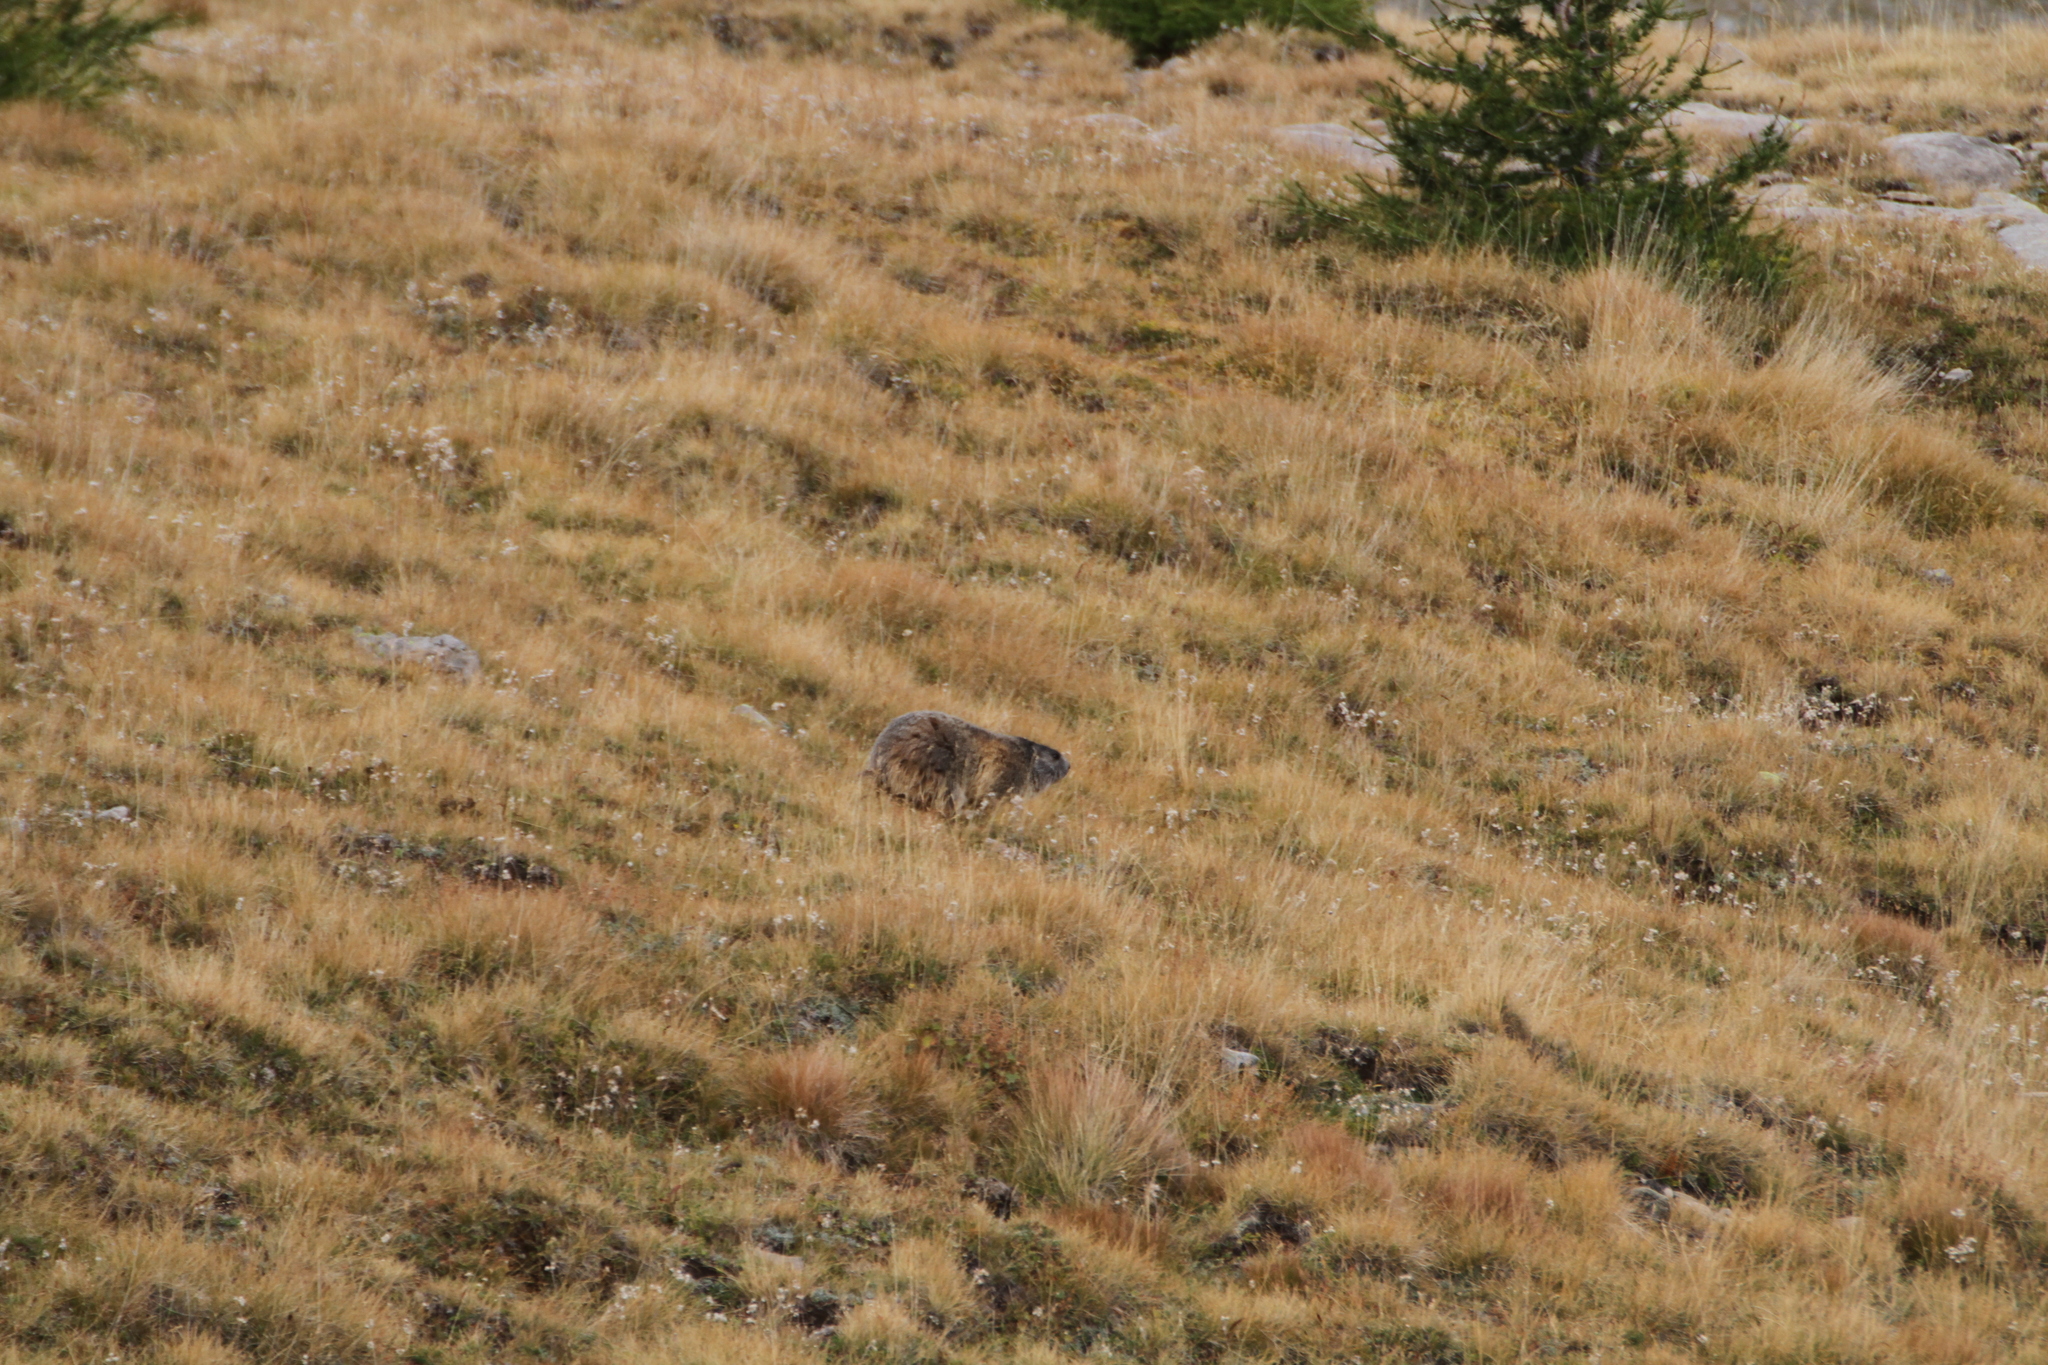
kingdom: Animalia
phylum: Chordata
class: Mammalia
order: Rodentia
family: Sciuridae
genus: Marmota
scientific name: Marmota marmota
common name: Alpine marmot
